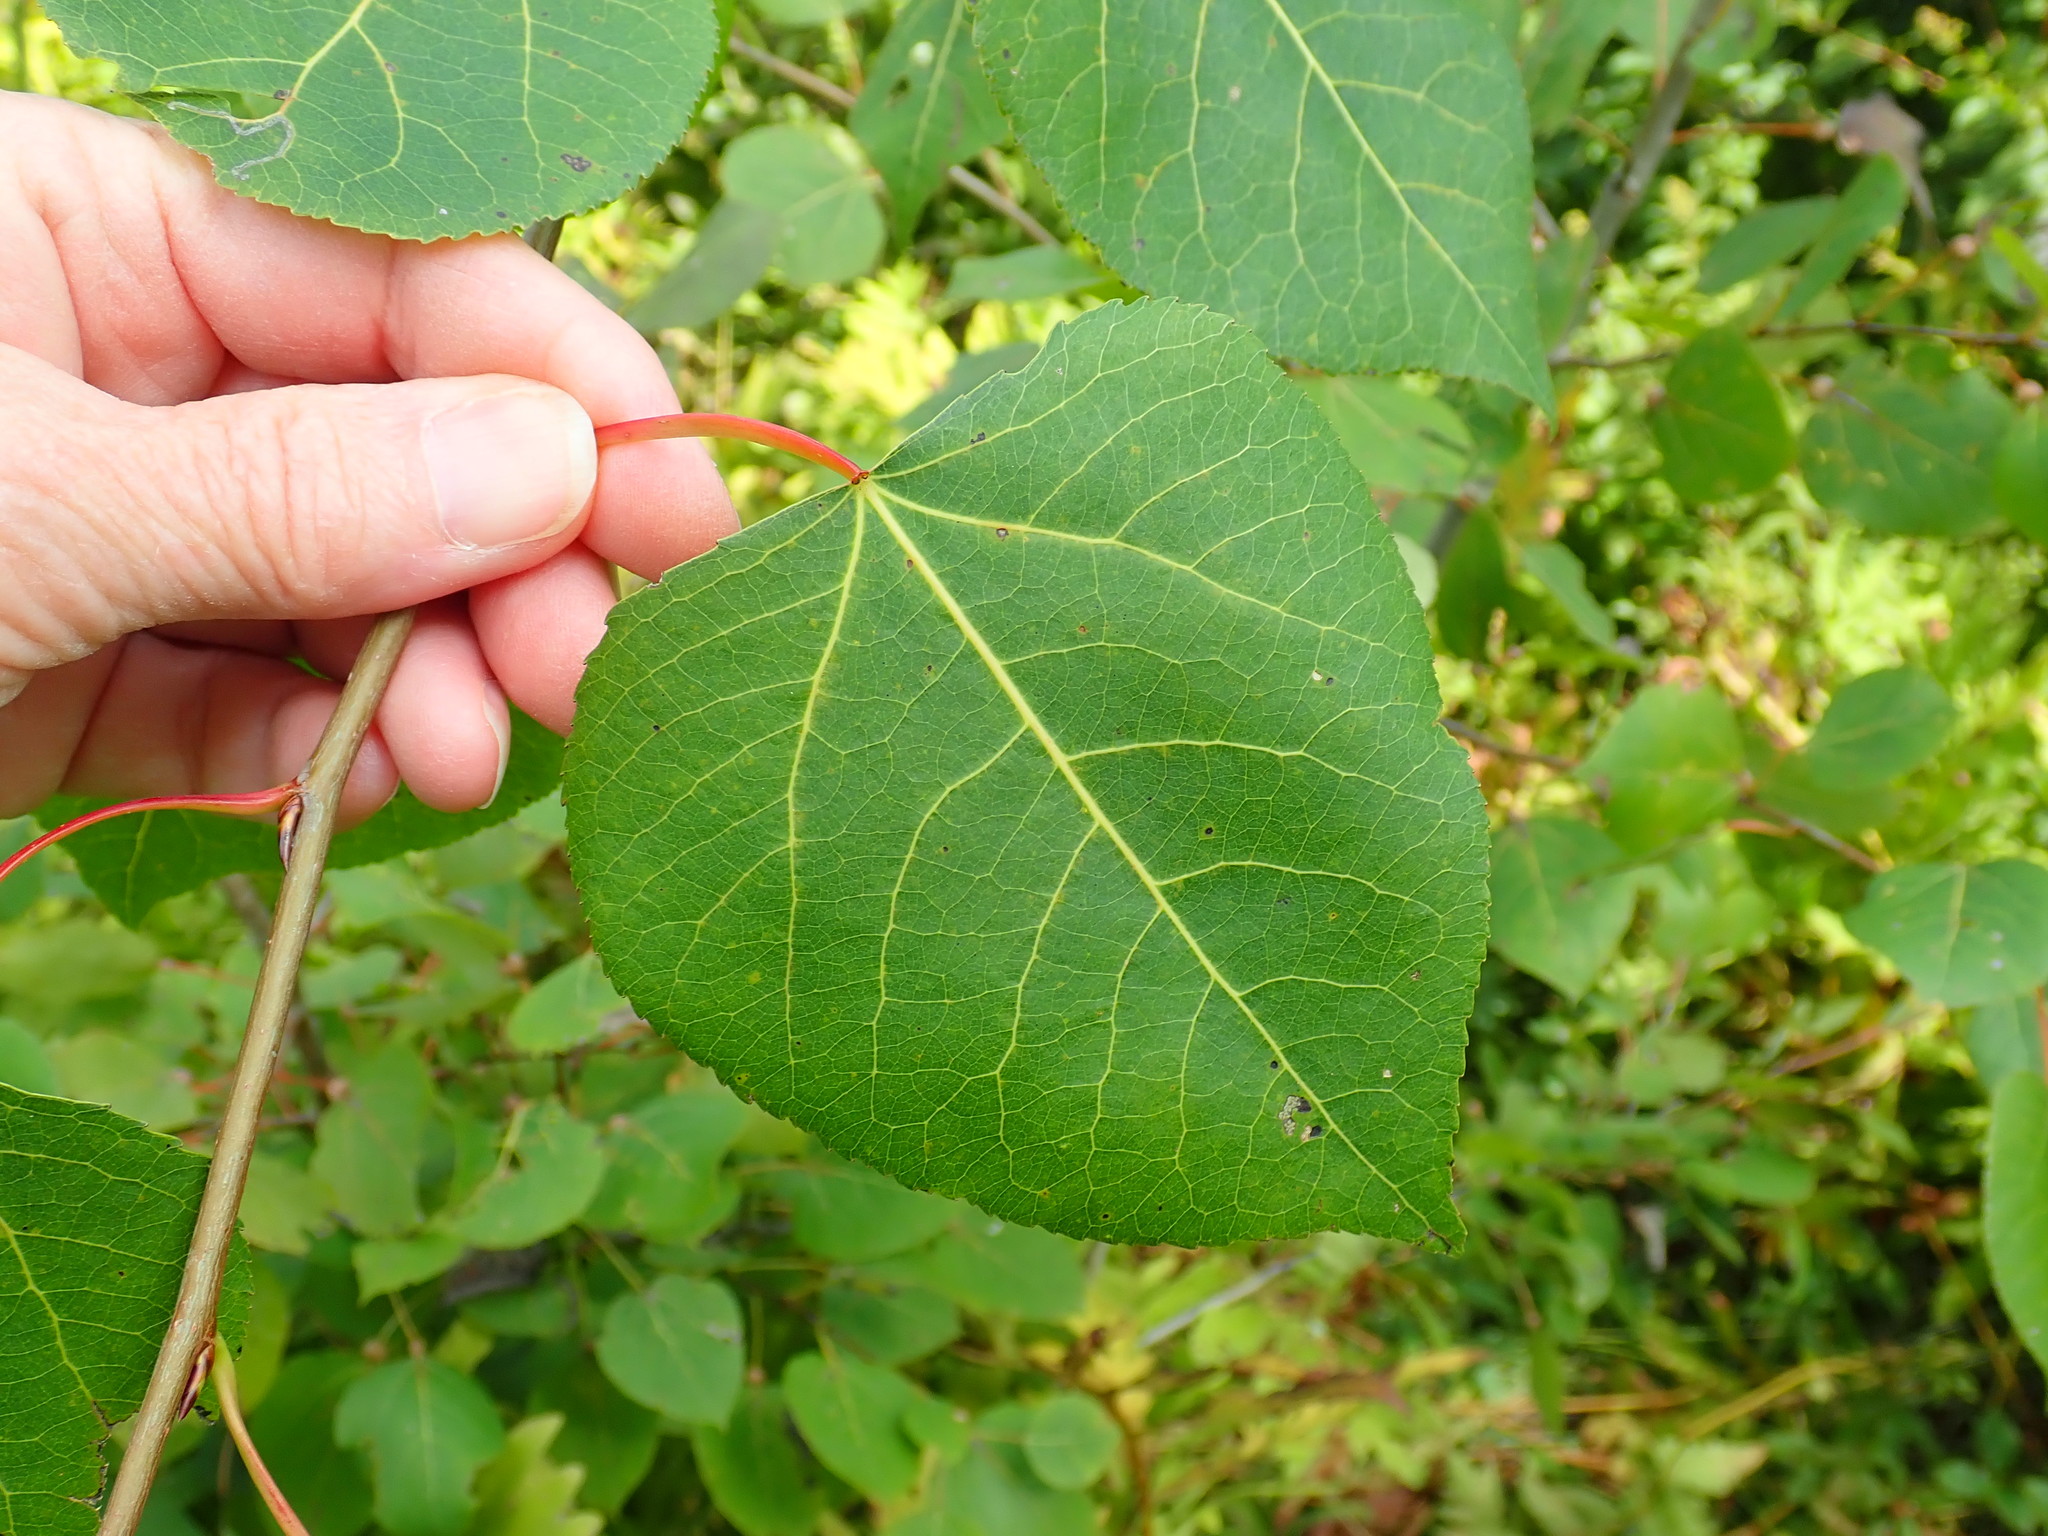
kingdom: Plantae
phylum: Tracheophyta
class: Magnoliopsida
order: Malpighiales
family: Salicaceae
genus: Populus
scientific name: Populus tremuloides
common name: Quaking aspen
